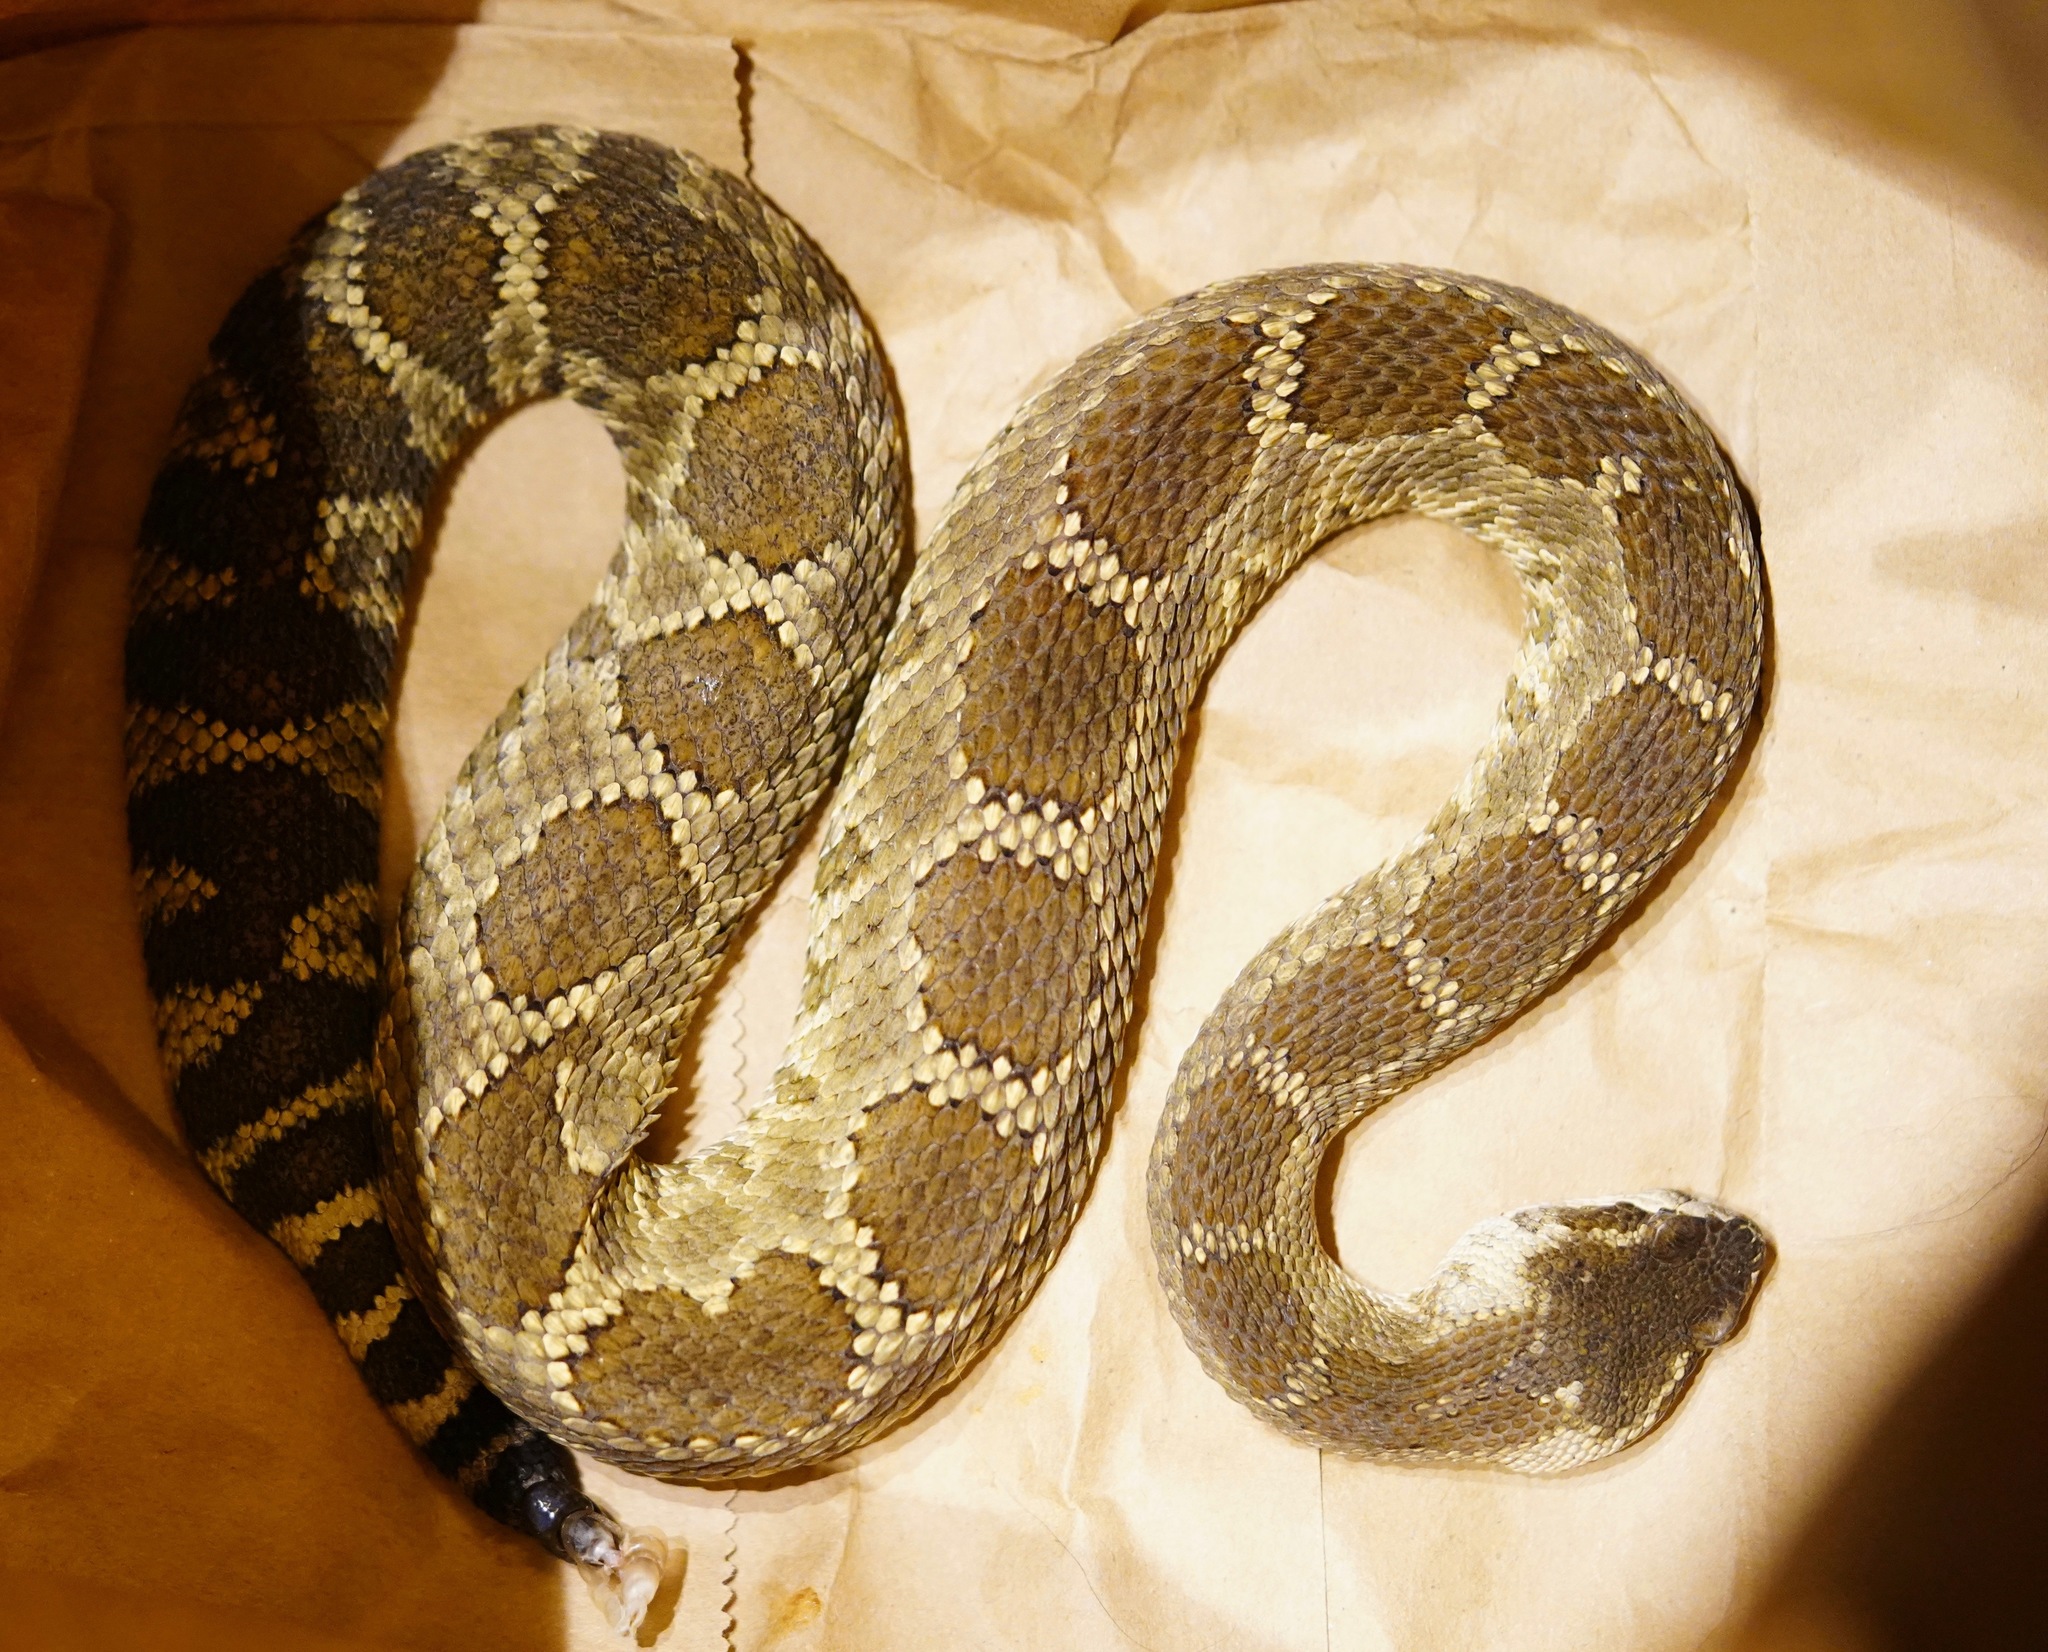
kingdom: Animalia
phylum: Chordata
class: Squamata
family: Viperidae
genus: Crotalus
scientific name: Crotalus oreganus
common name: Abyssus
